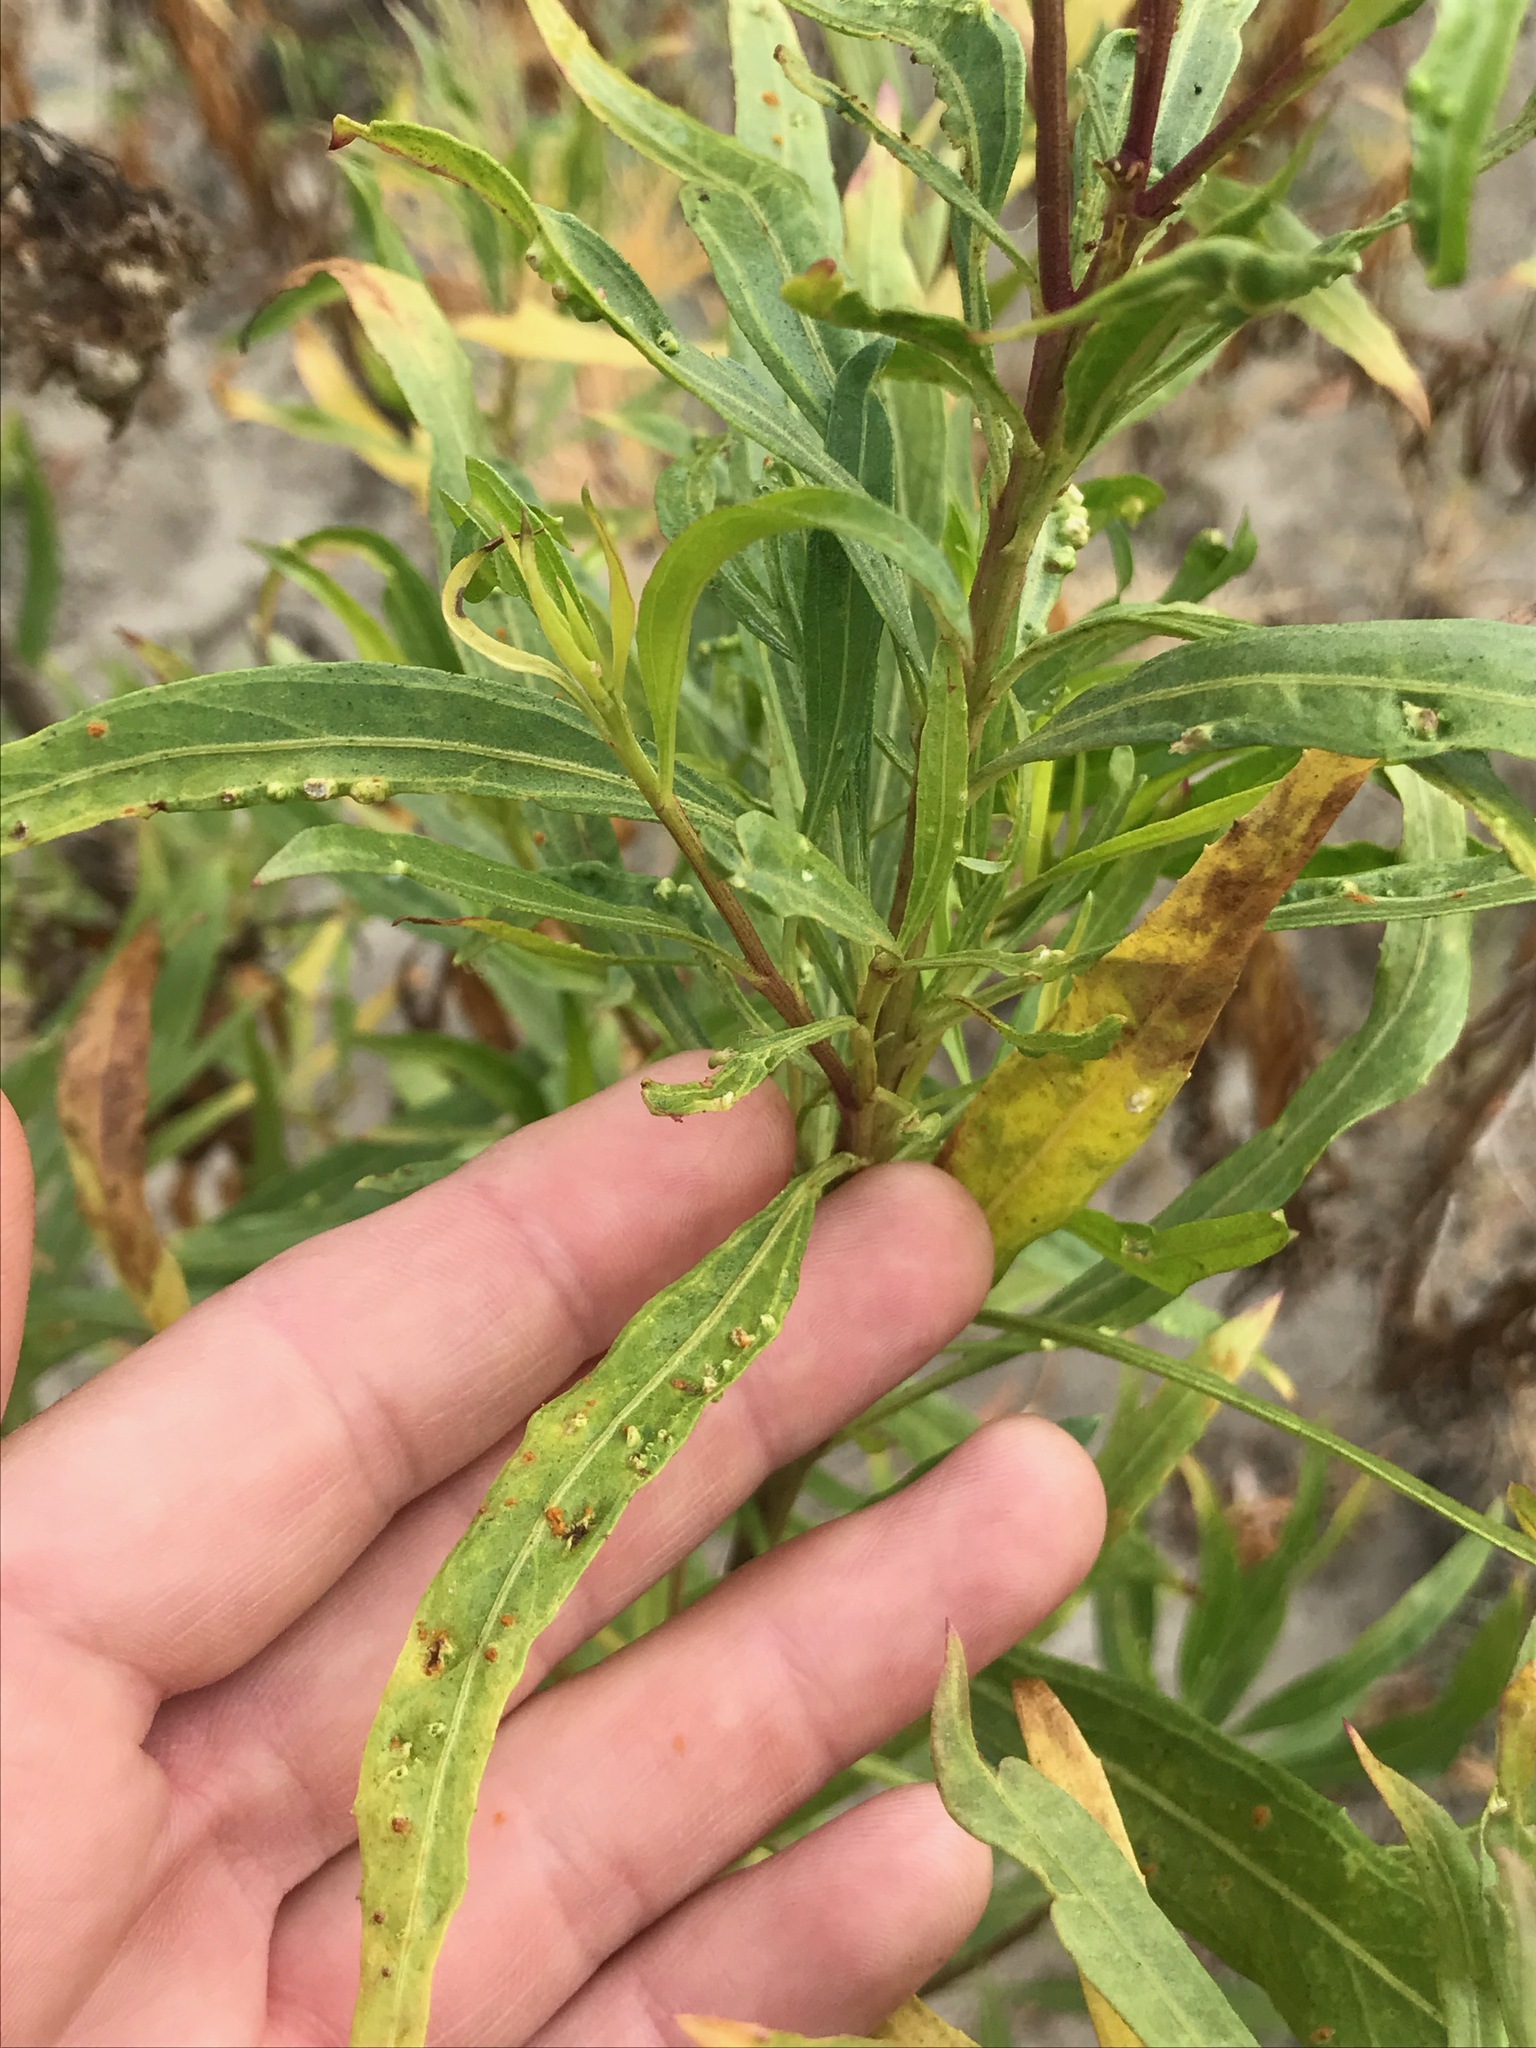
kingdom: Animalia
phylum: Arthropoda
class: Arachnida
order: Trombidiformes
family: Eriophyidae
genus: Aceria
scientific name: Aceria
